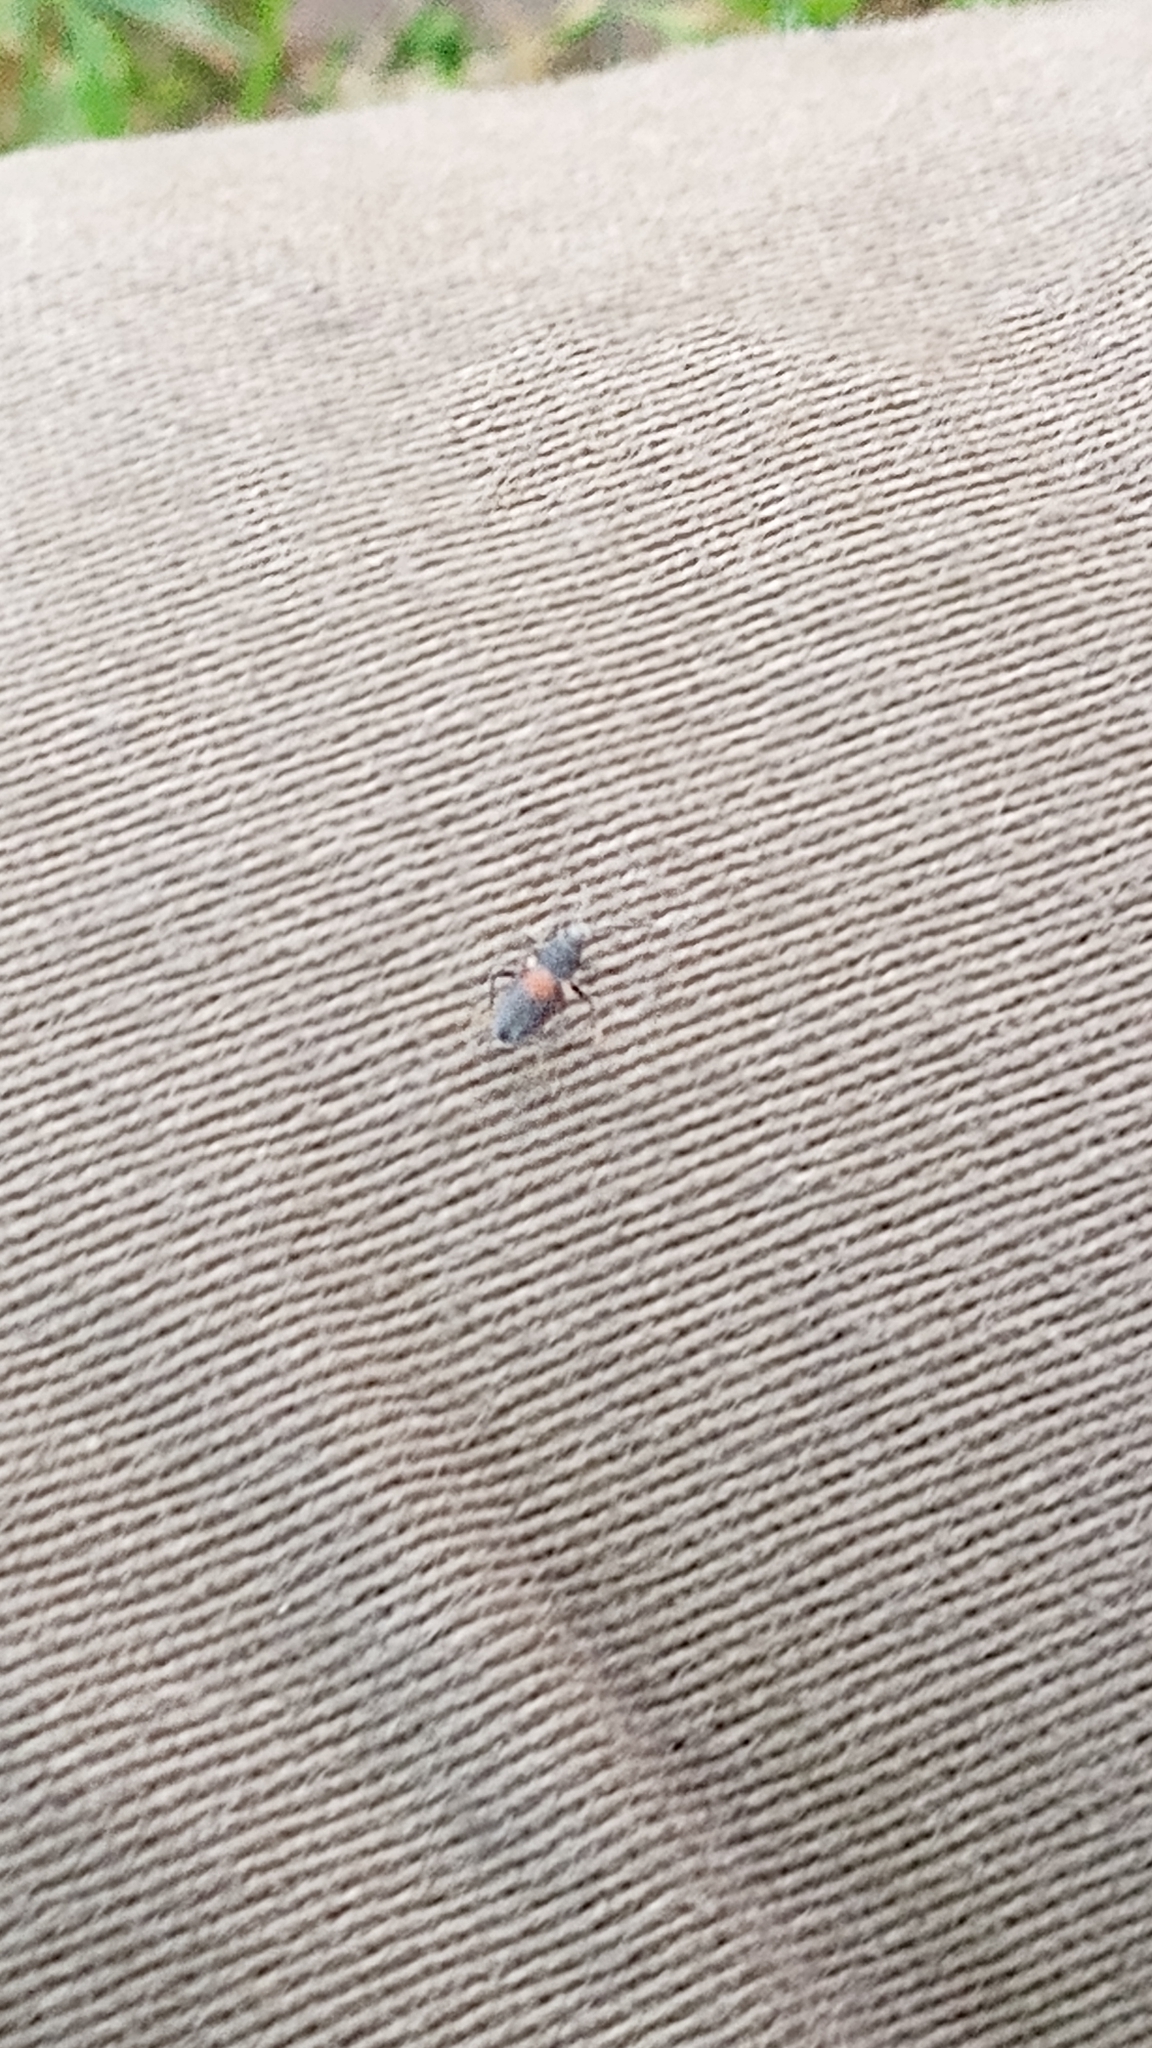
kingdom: Animalia
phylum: Arthropoda
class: Insecta
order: Hemiptera
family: Largidae
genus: Stenomacra
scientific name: Stenomacra marginella
